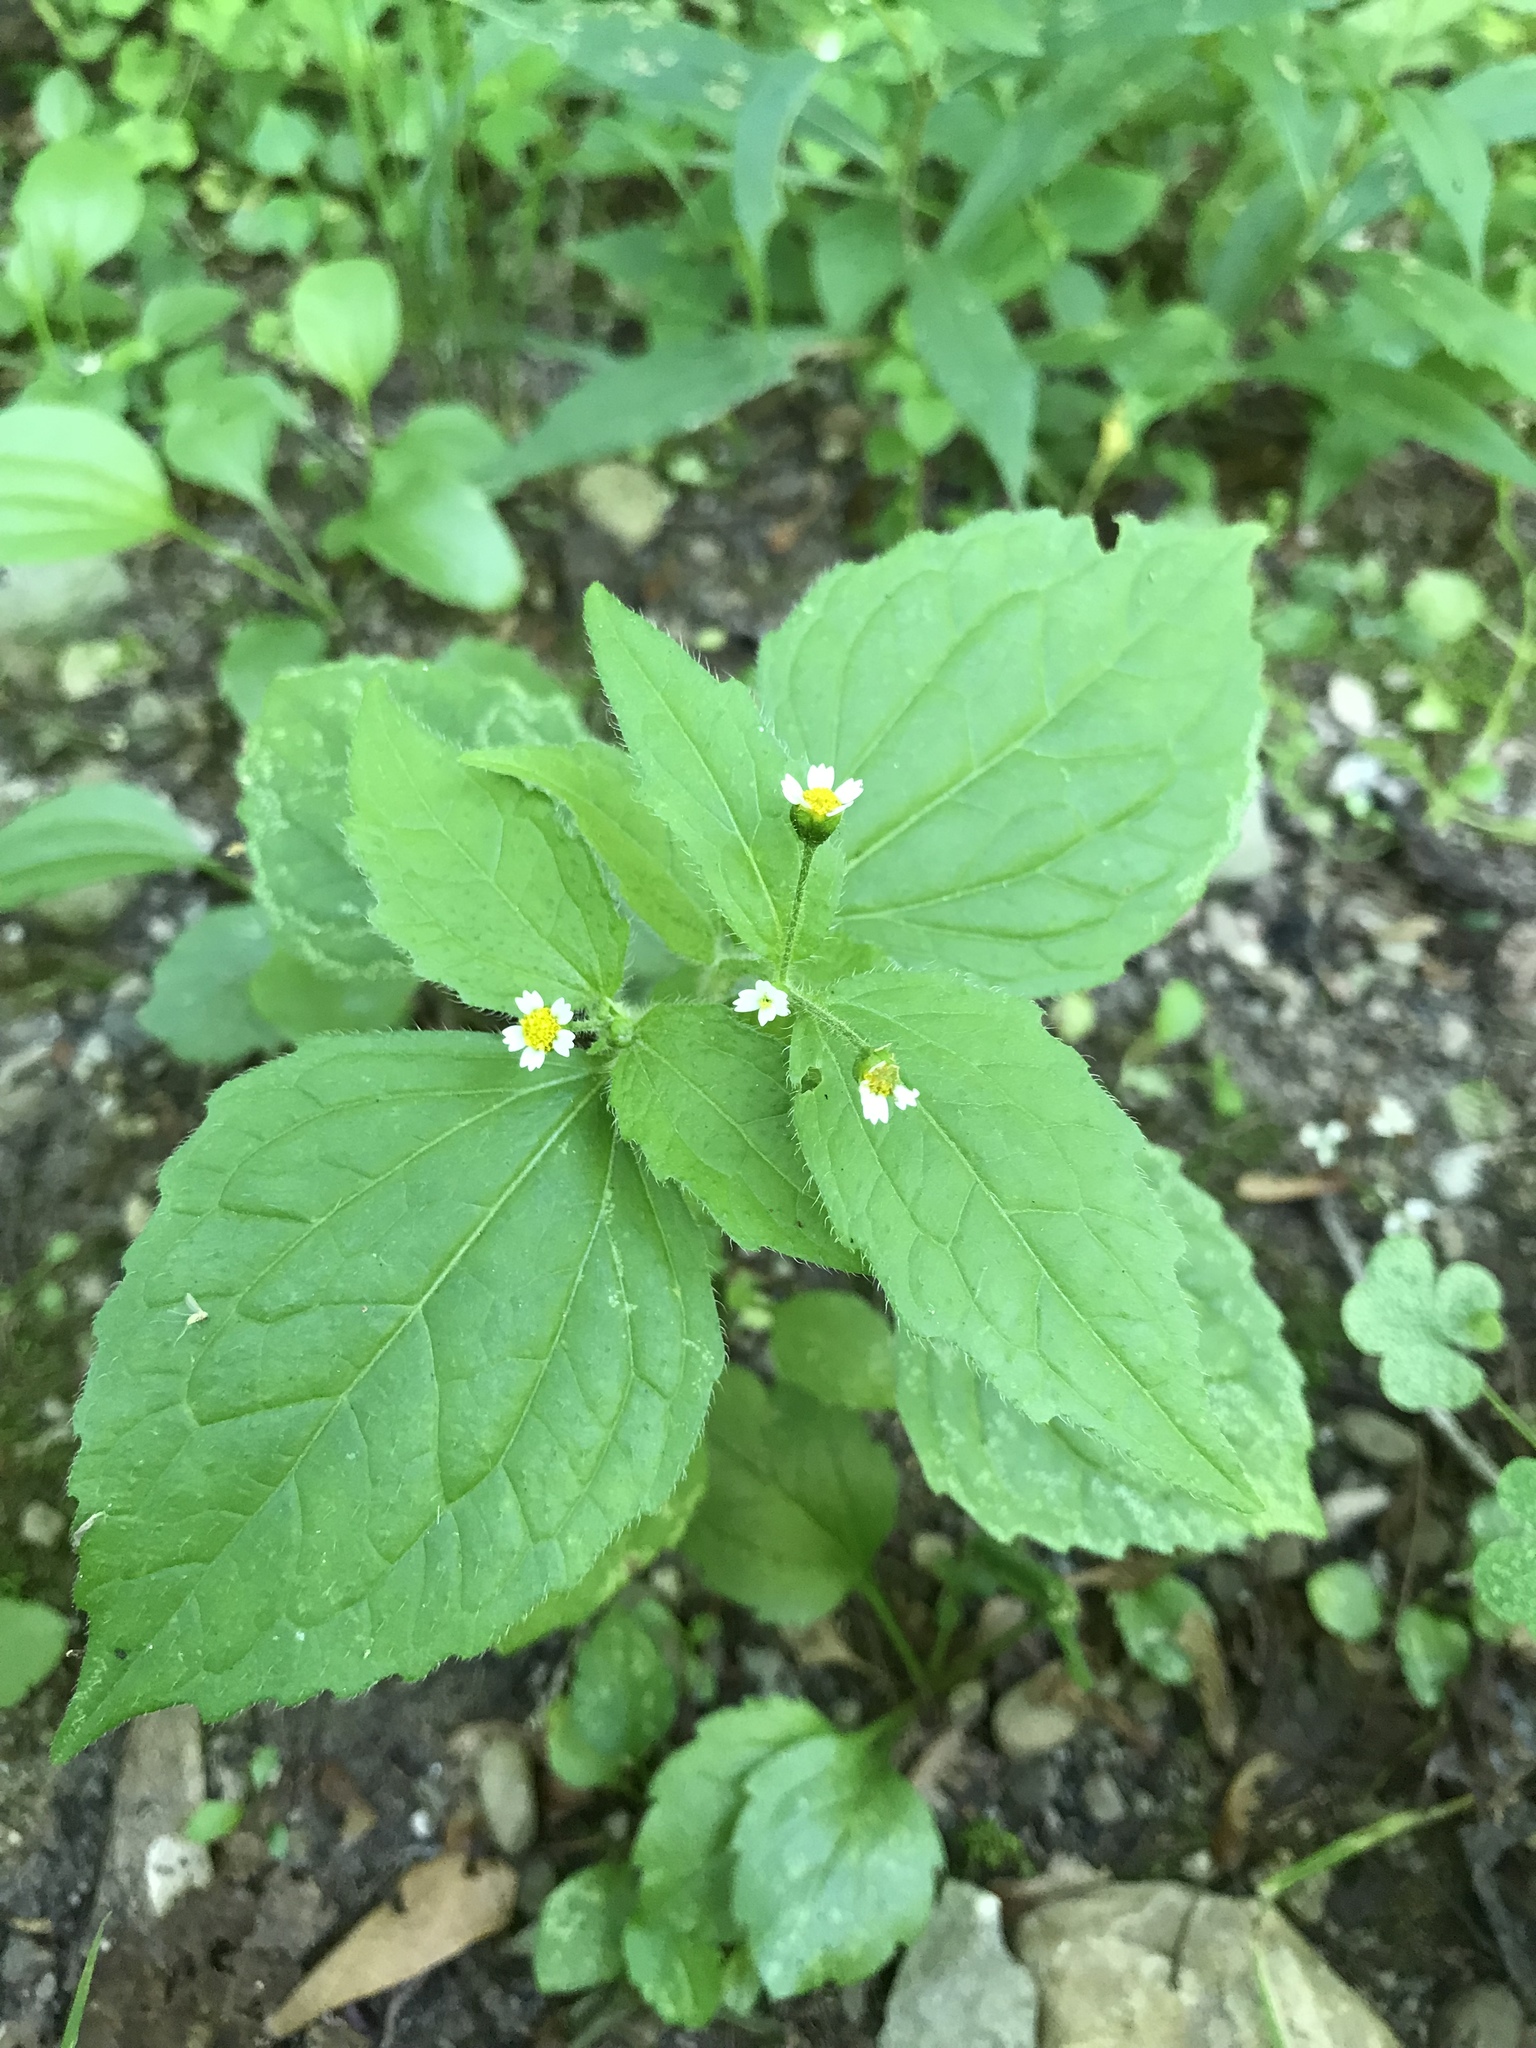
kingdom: Plantae
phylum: Tracheophyta
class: Magnoliopsida
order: Asterales
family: Asteraceae
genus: Galinsoga
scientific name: Galinsoga quadriradiata
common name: Shaggy soldier
